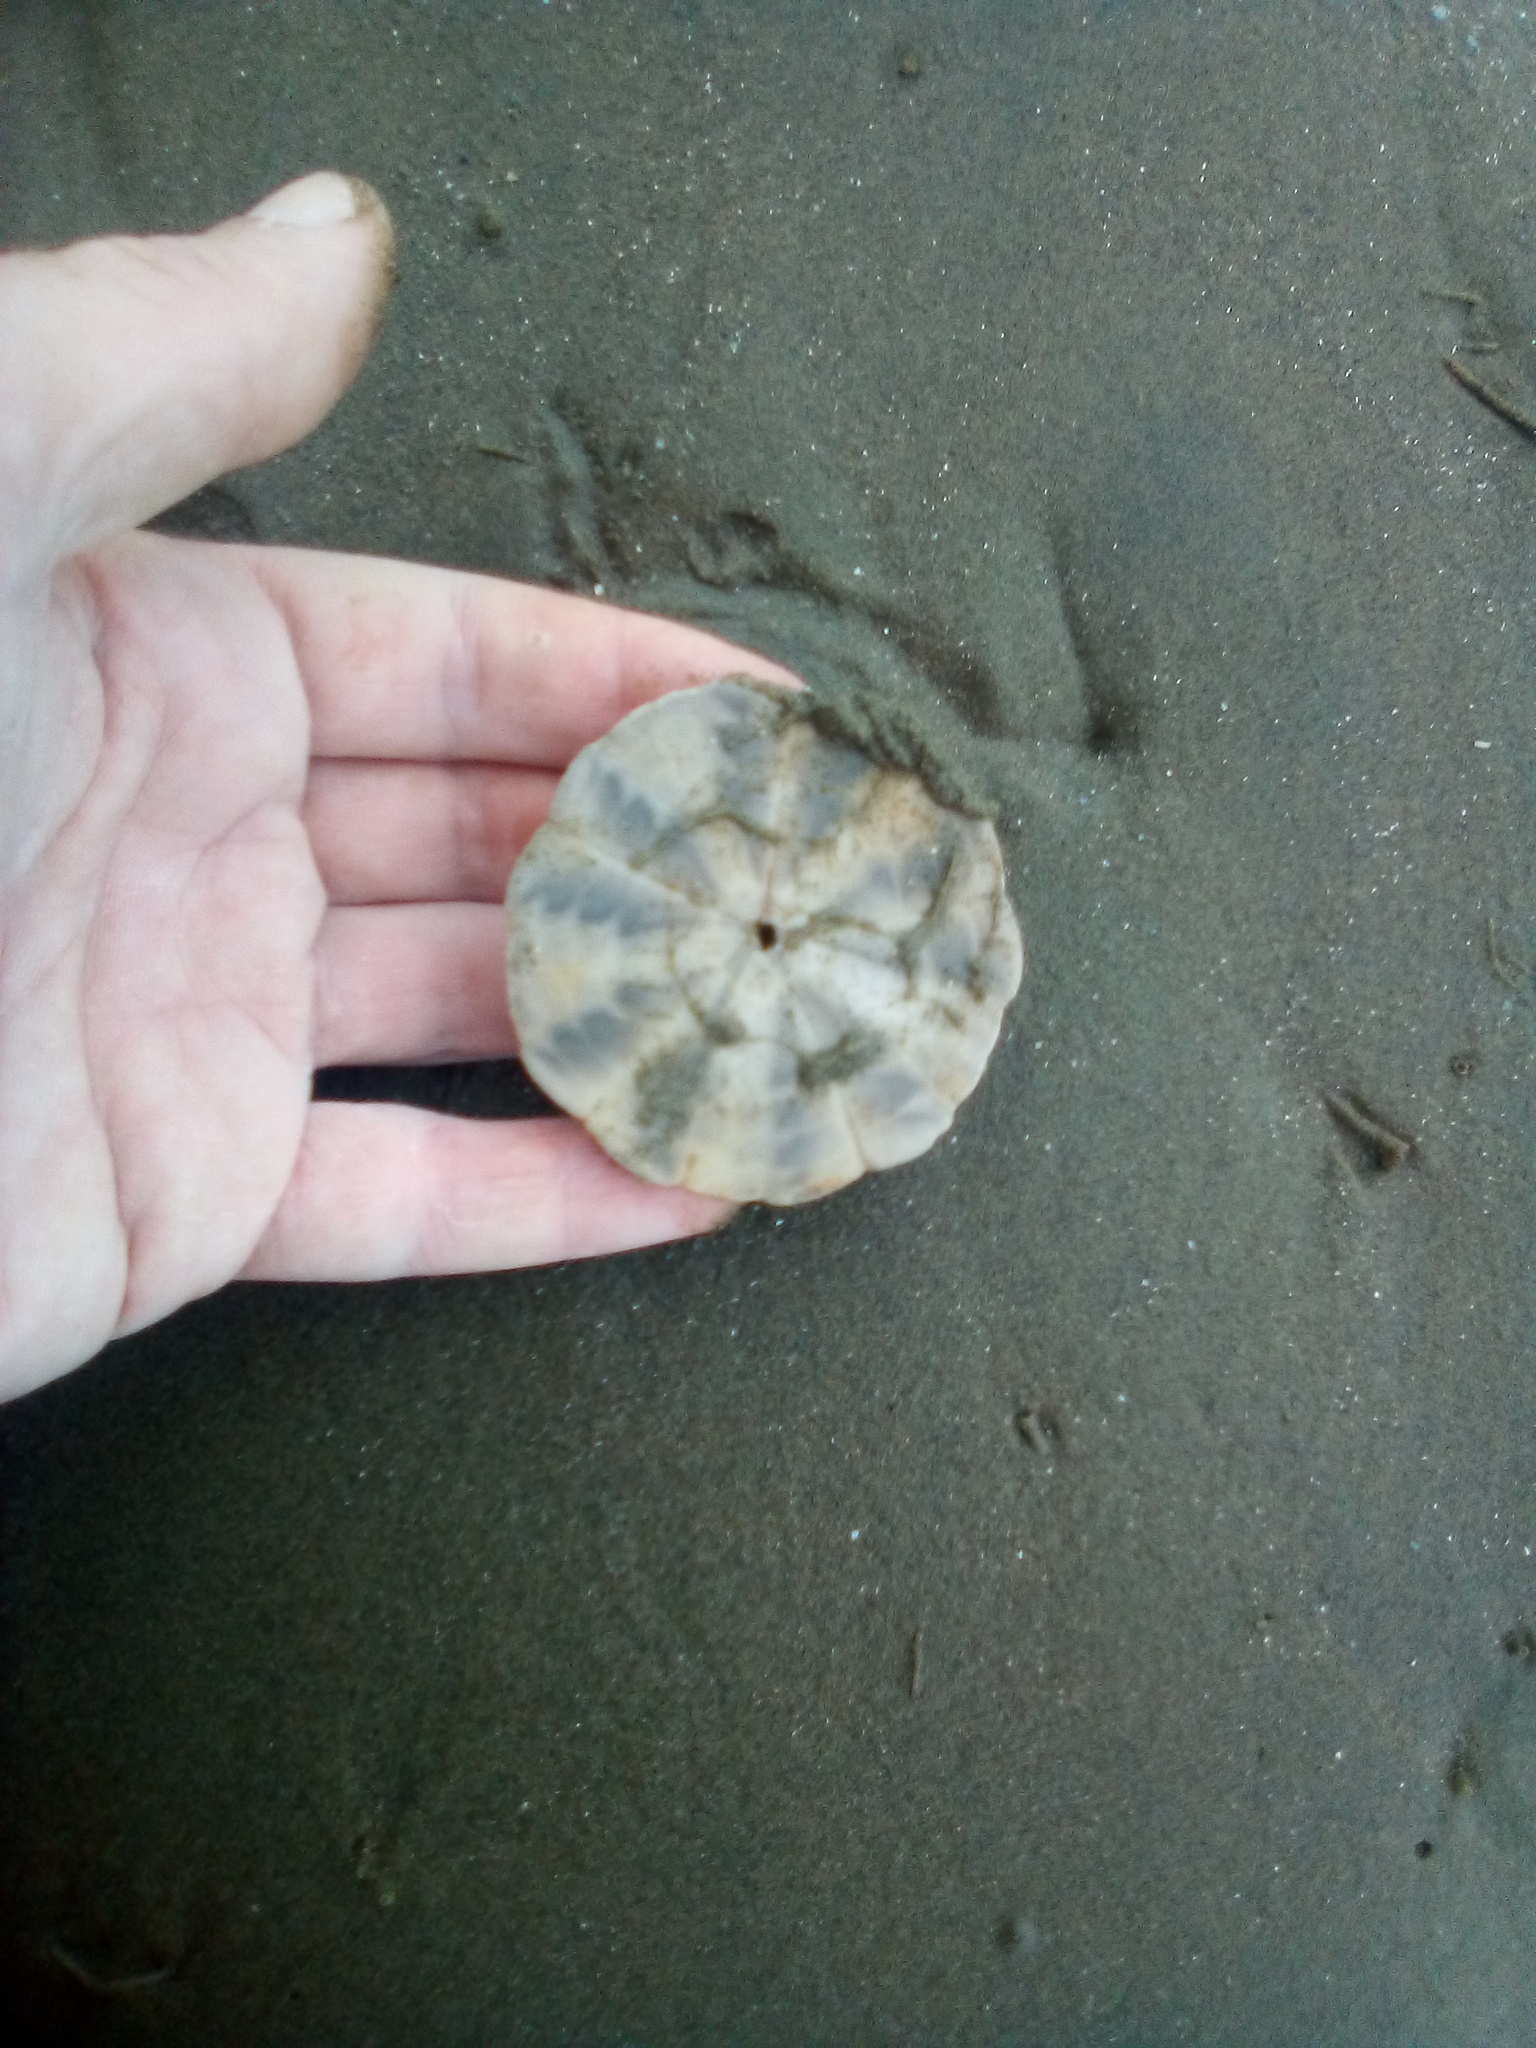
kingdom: Animalia
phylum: Echinodermata
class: Echinoidea
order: Clypeasteroida
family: Clypeasteridae
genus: Fellaster
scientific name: Fellaster zelandiae
